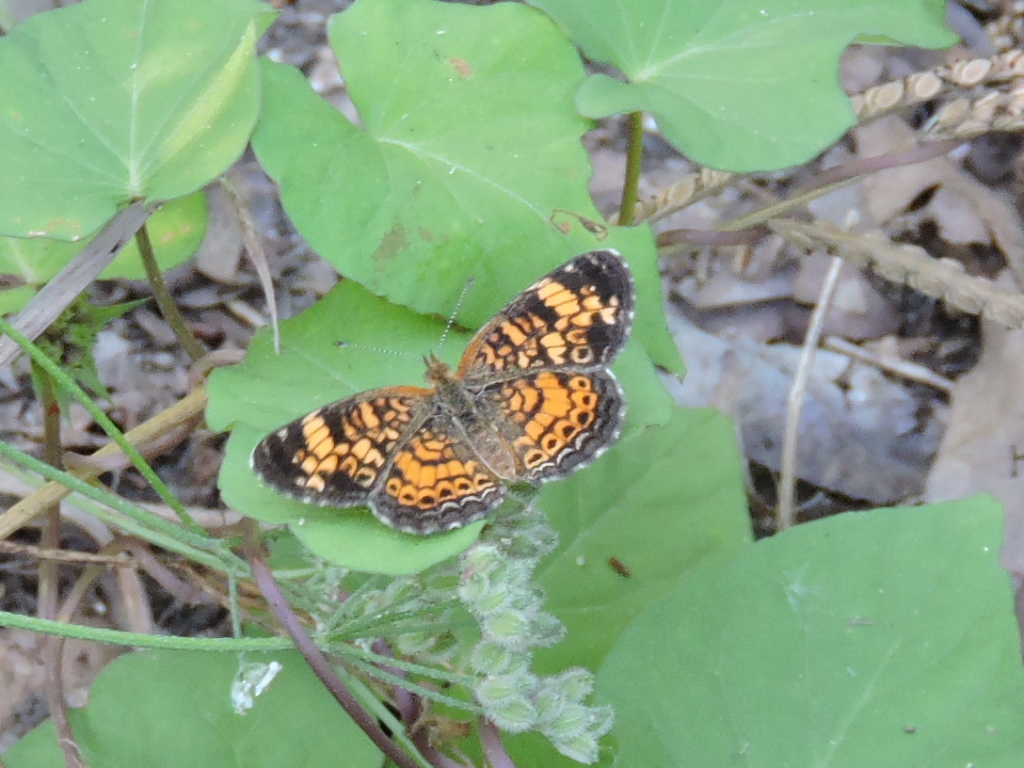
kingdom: Animalia
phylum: Arthropoda
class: Insecta
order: Lepidoptera
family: Nymphalidae
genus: Phyciodes
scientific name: Phyciodes tharos
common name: Pearl crescent
